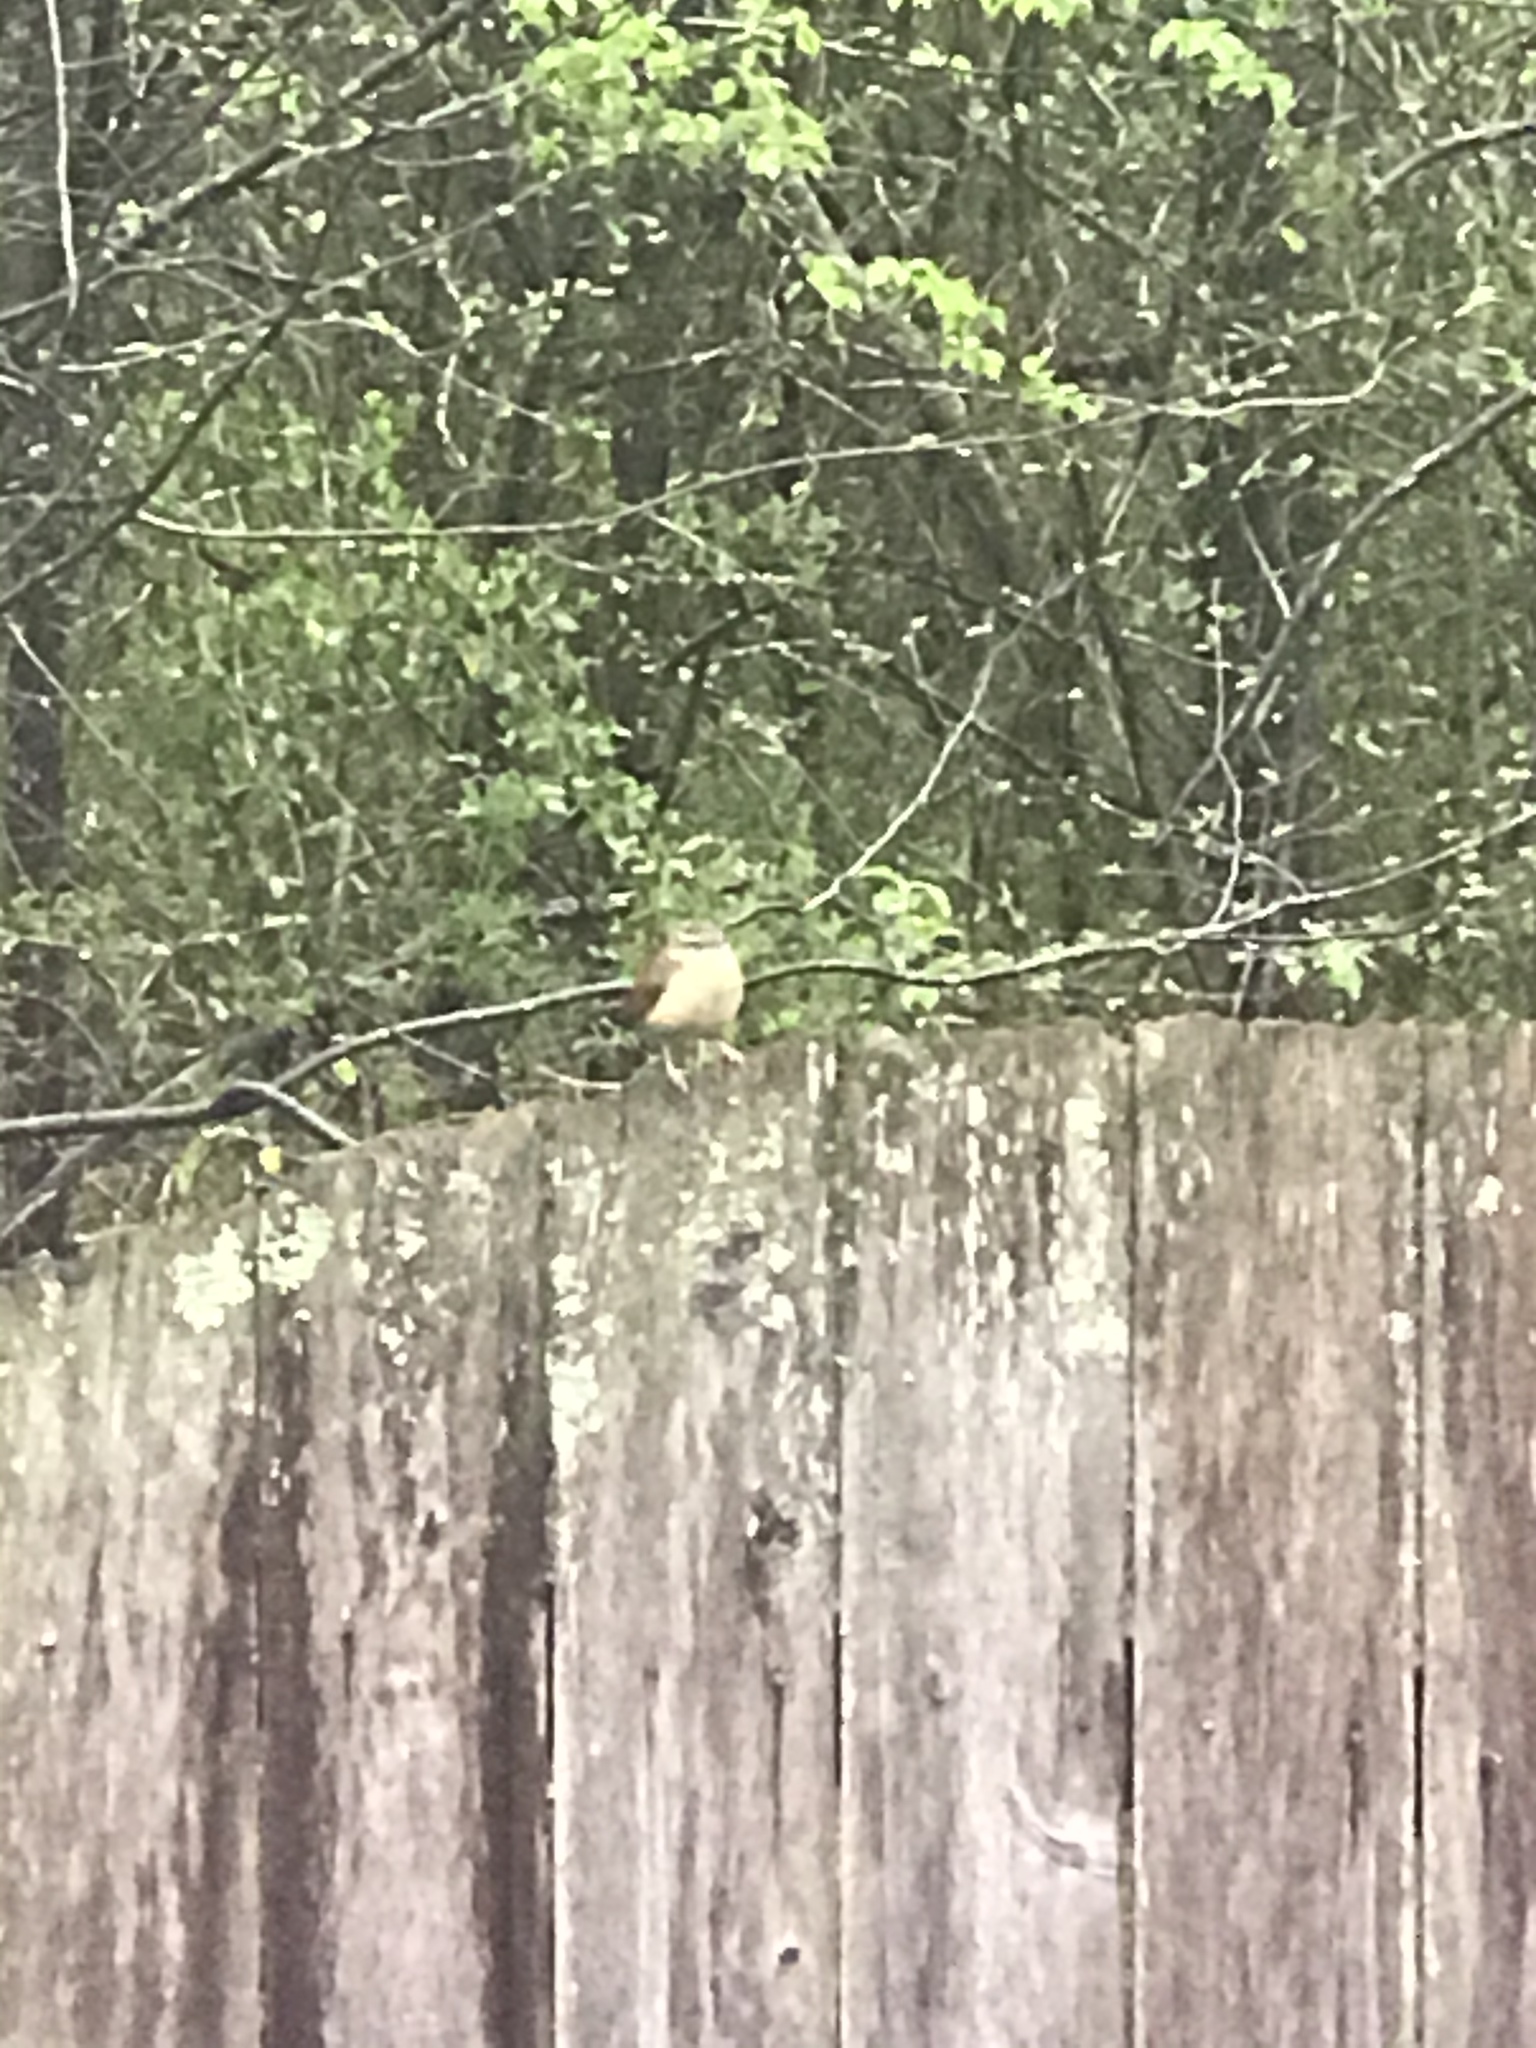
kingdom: Animalia
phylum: Chordata
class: Aves
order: Passeriformes
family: Troglodytidae
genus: Thryothorus
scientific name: Thryothorus ludovicianus
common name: Carolina wren
